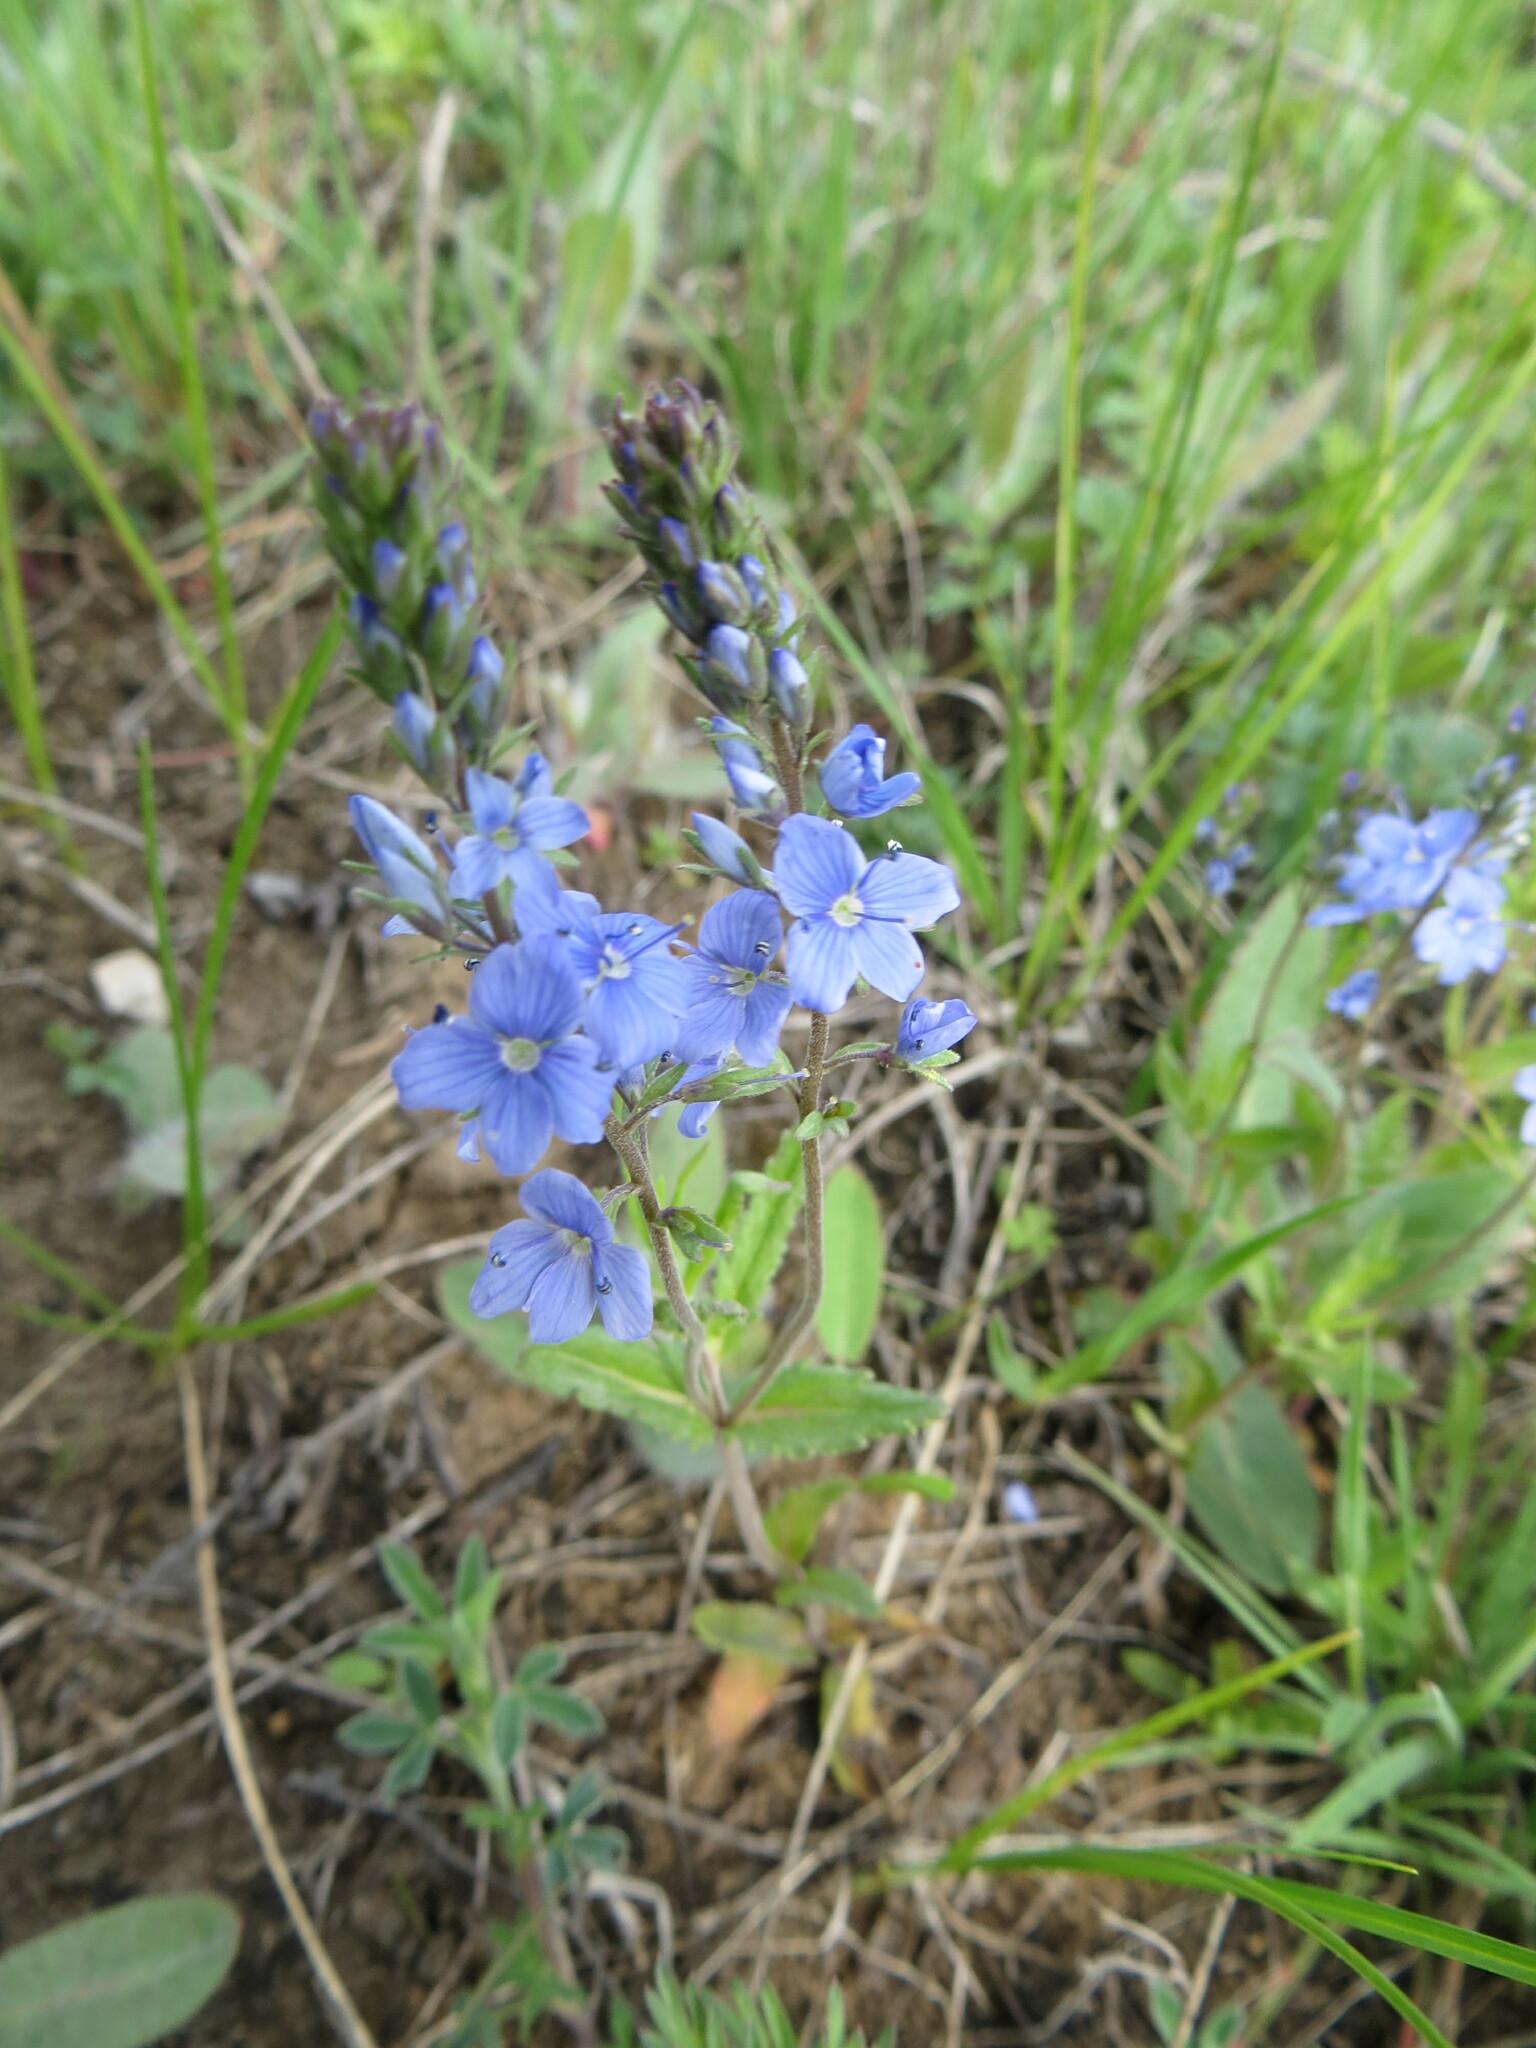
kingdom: Plantae
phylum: Tracheophyta
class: Magnoliopsida
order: Lamiales
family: Plantaginaceae
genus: Veronica
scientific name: Veronica prostrata
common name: Prostrate speedwell
